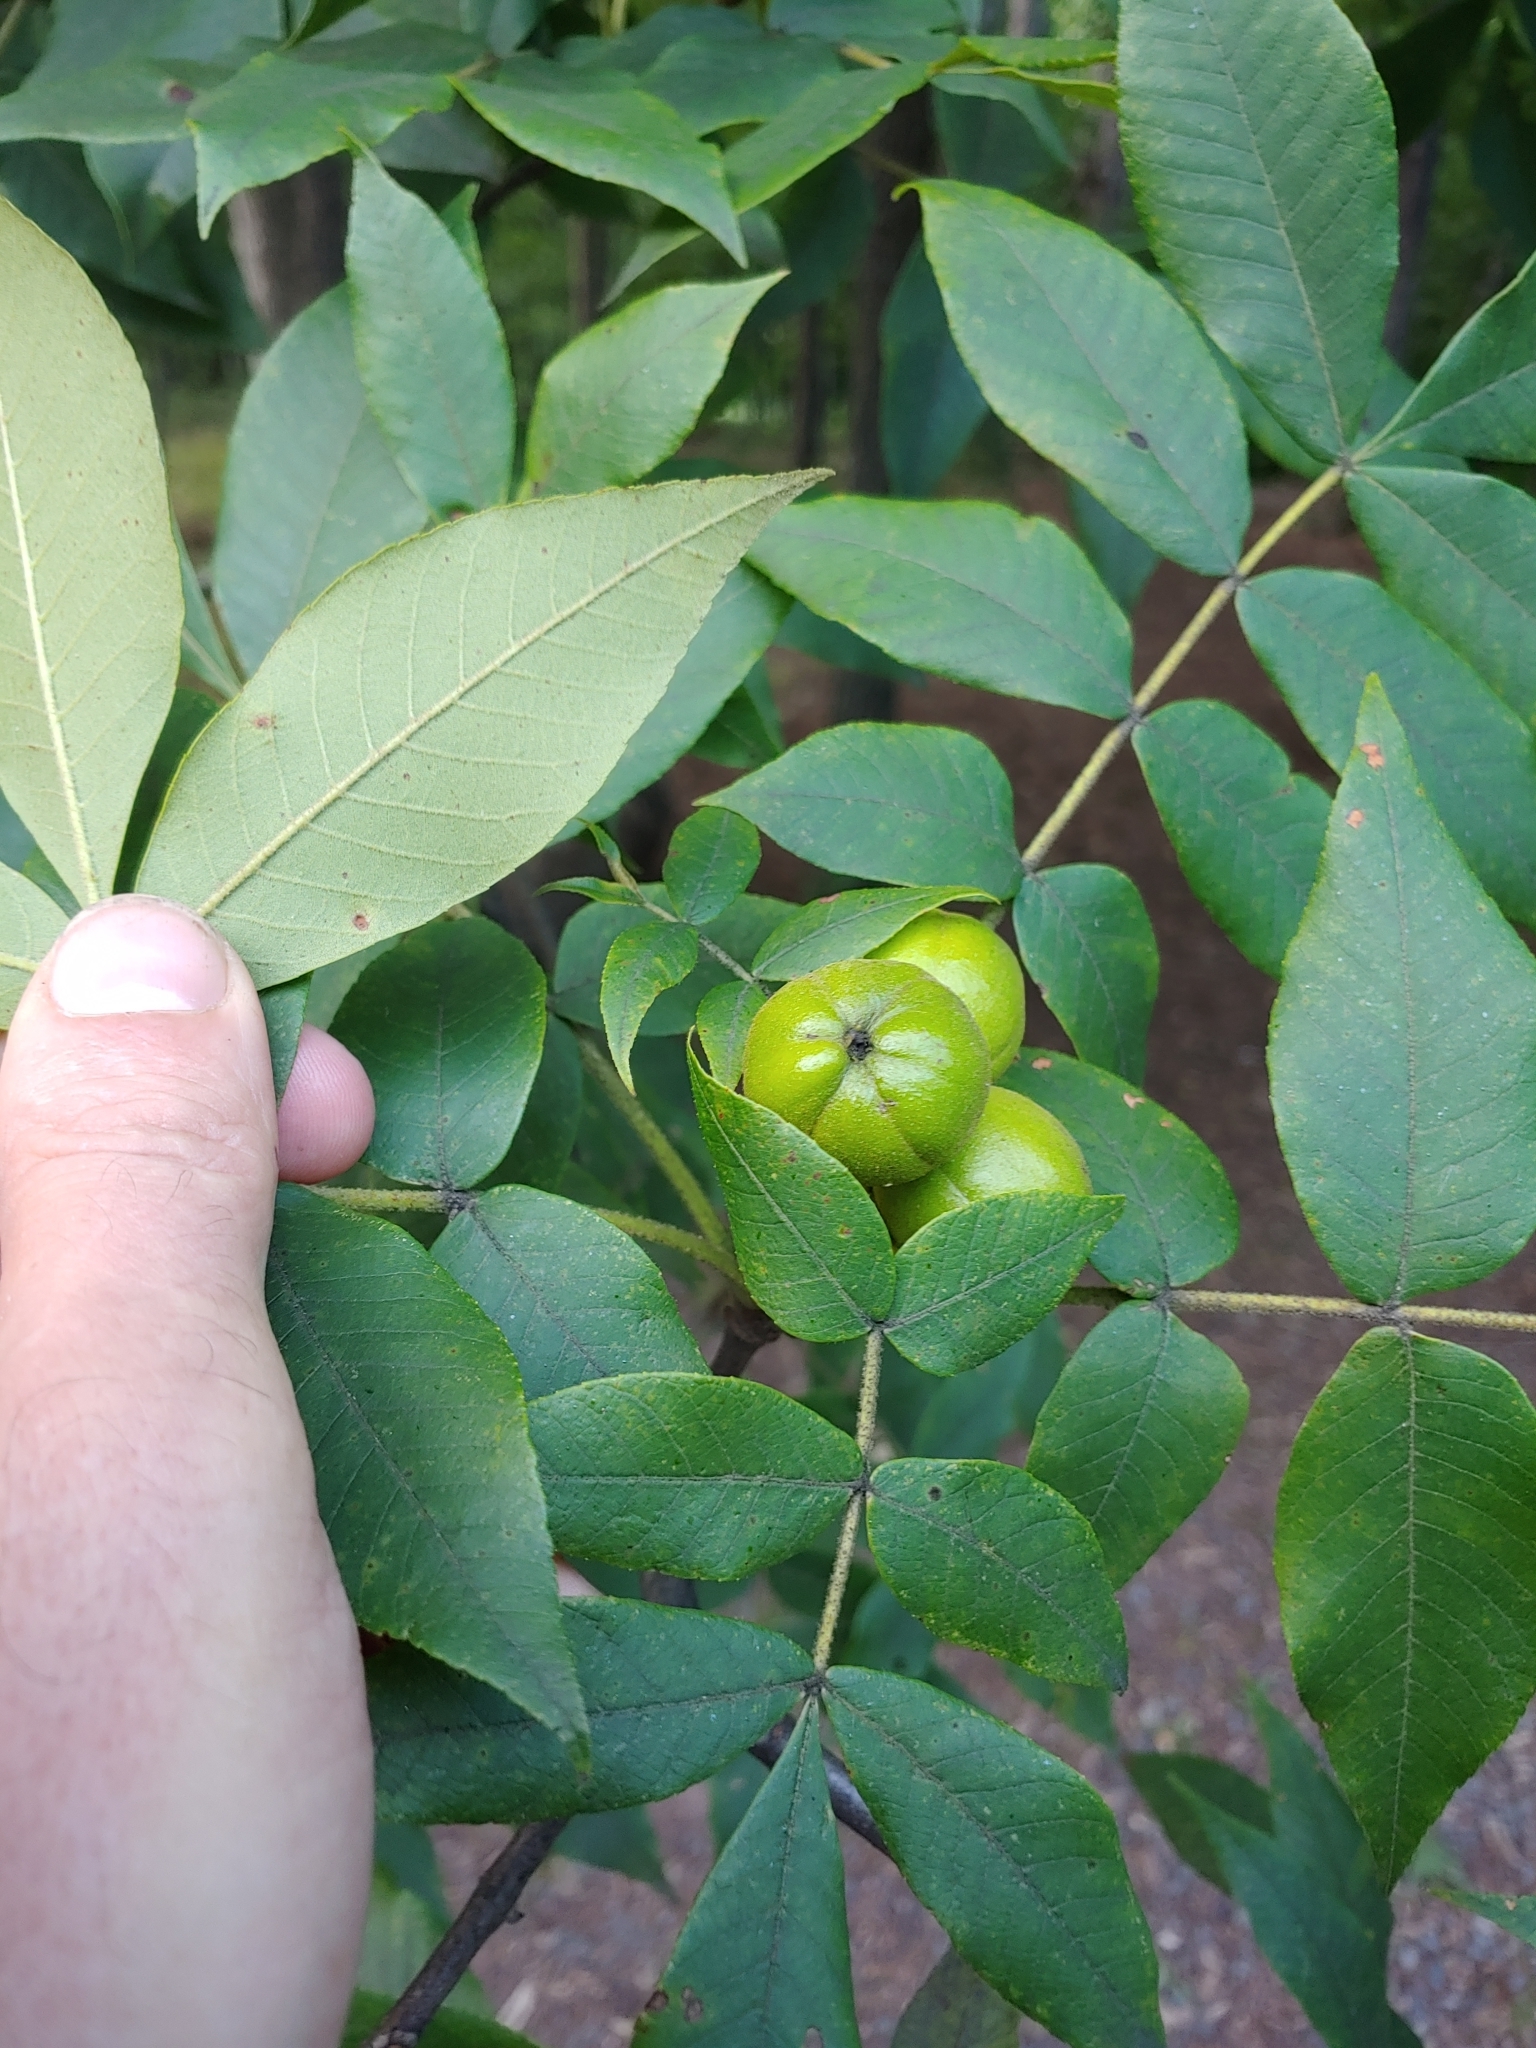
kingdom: Plantae
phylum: Tracheophyta
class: Magnoliopsida
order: Fagales
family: Juglandaceae
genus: Carya
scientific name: Carya alba
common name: Mockernut hickory
